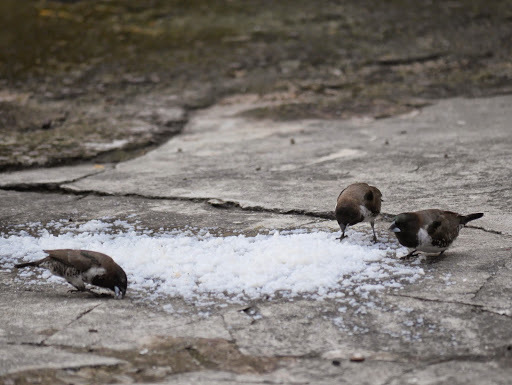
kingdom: Animalia
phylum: Chordata
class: Aves
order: Passeriformes
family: Estrildidae
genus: Lonchura
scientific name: Lonchura cucullata
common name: Bronze mannikin
